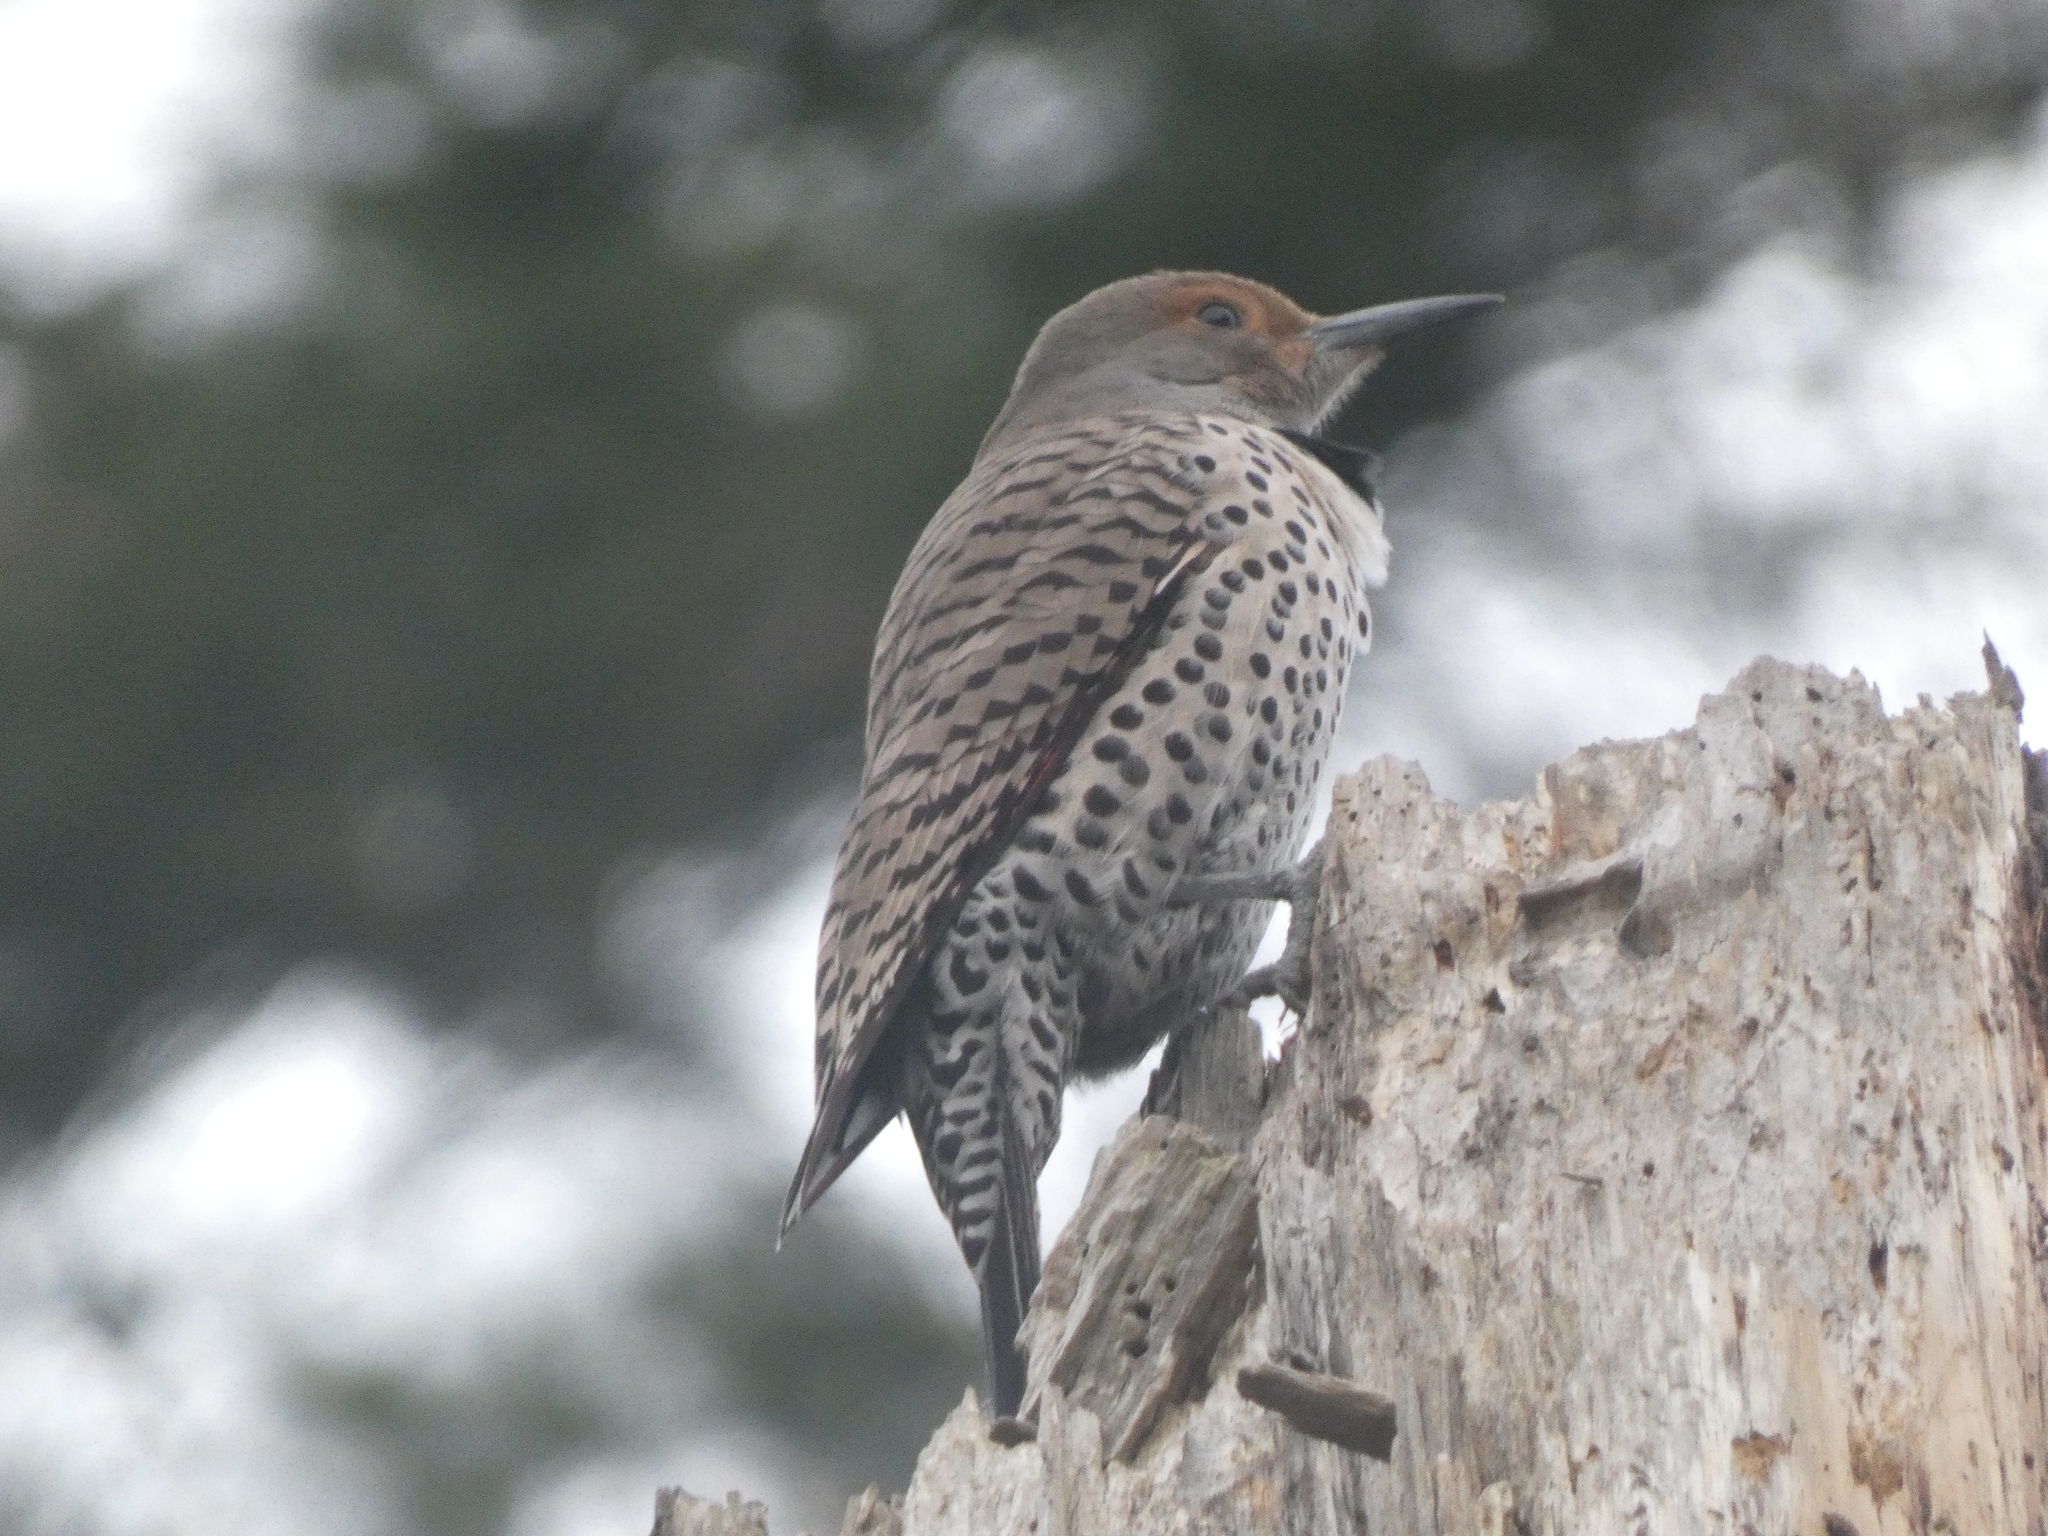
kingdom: Animalia
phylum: Chordata
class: Aves
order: Piciformes
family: Picidae
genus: Colaptes
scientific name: Colaptes auratus
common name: Northern flicker
